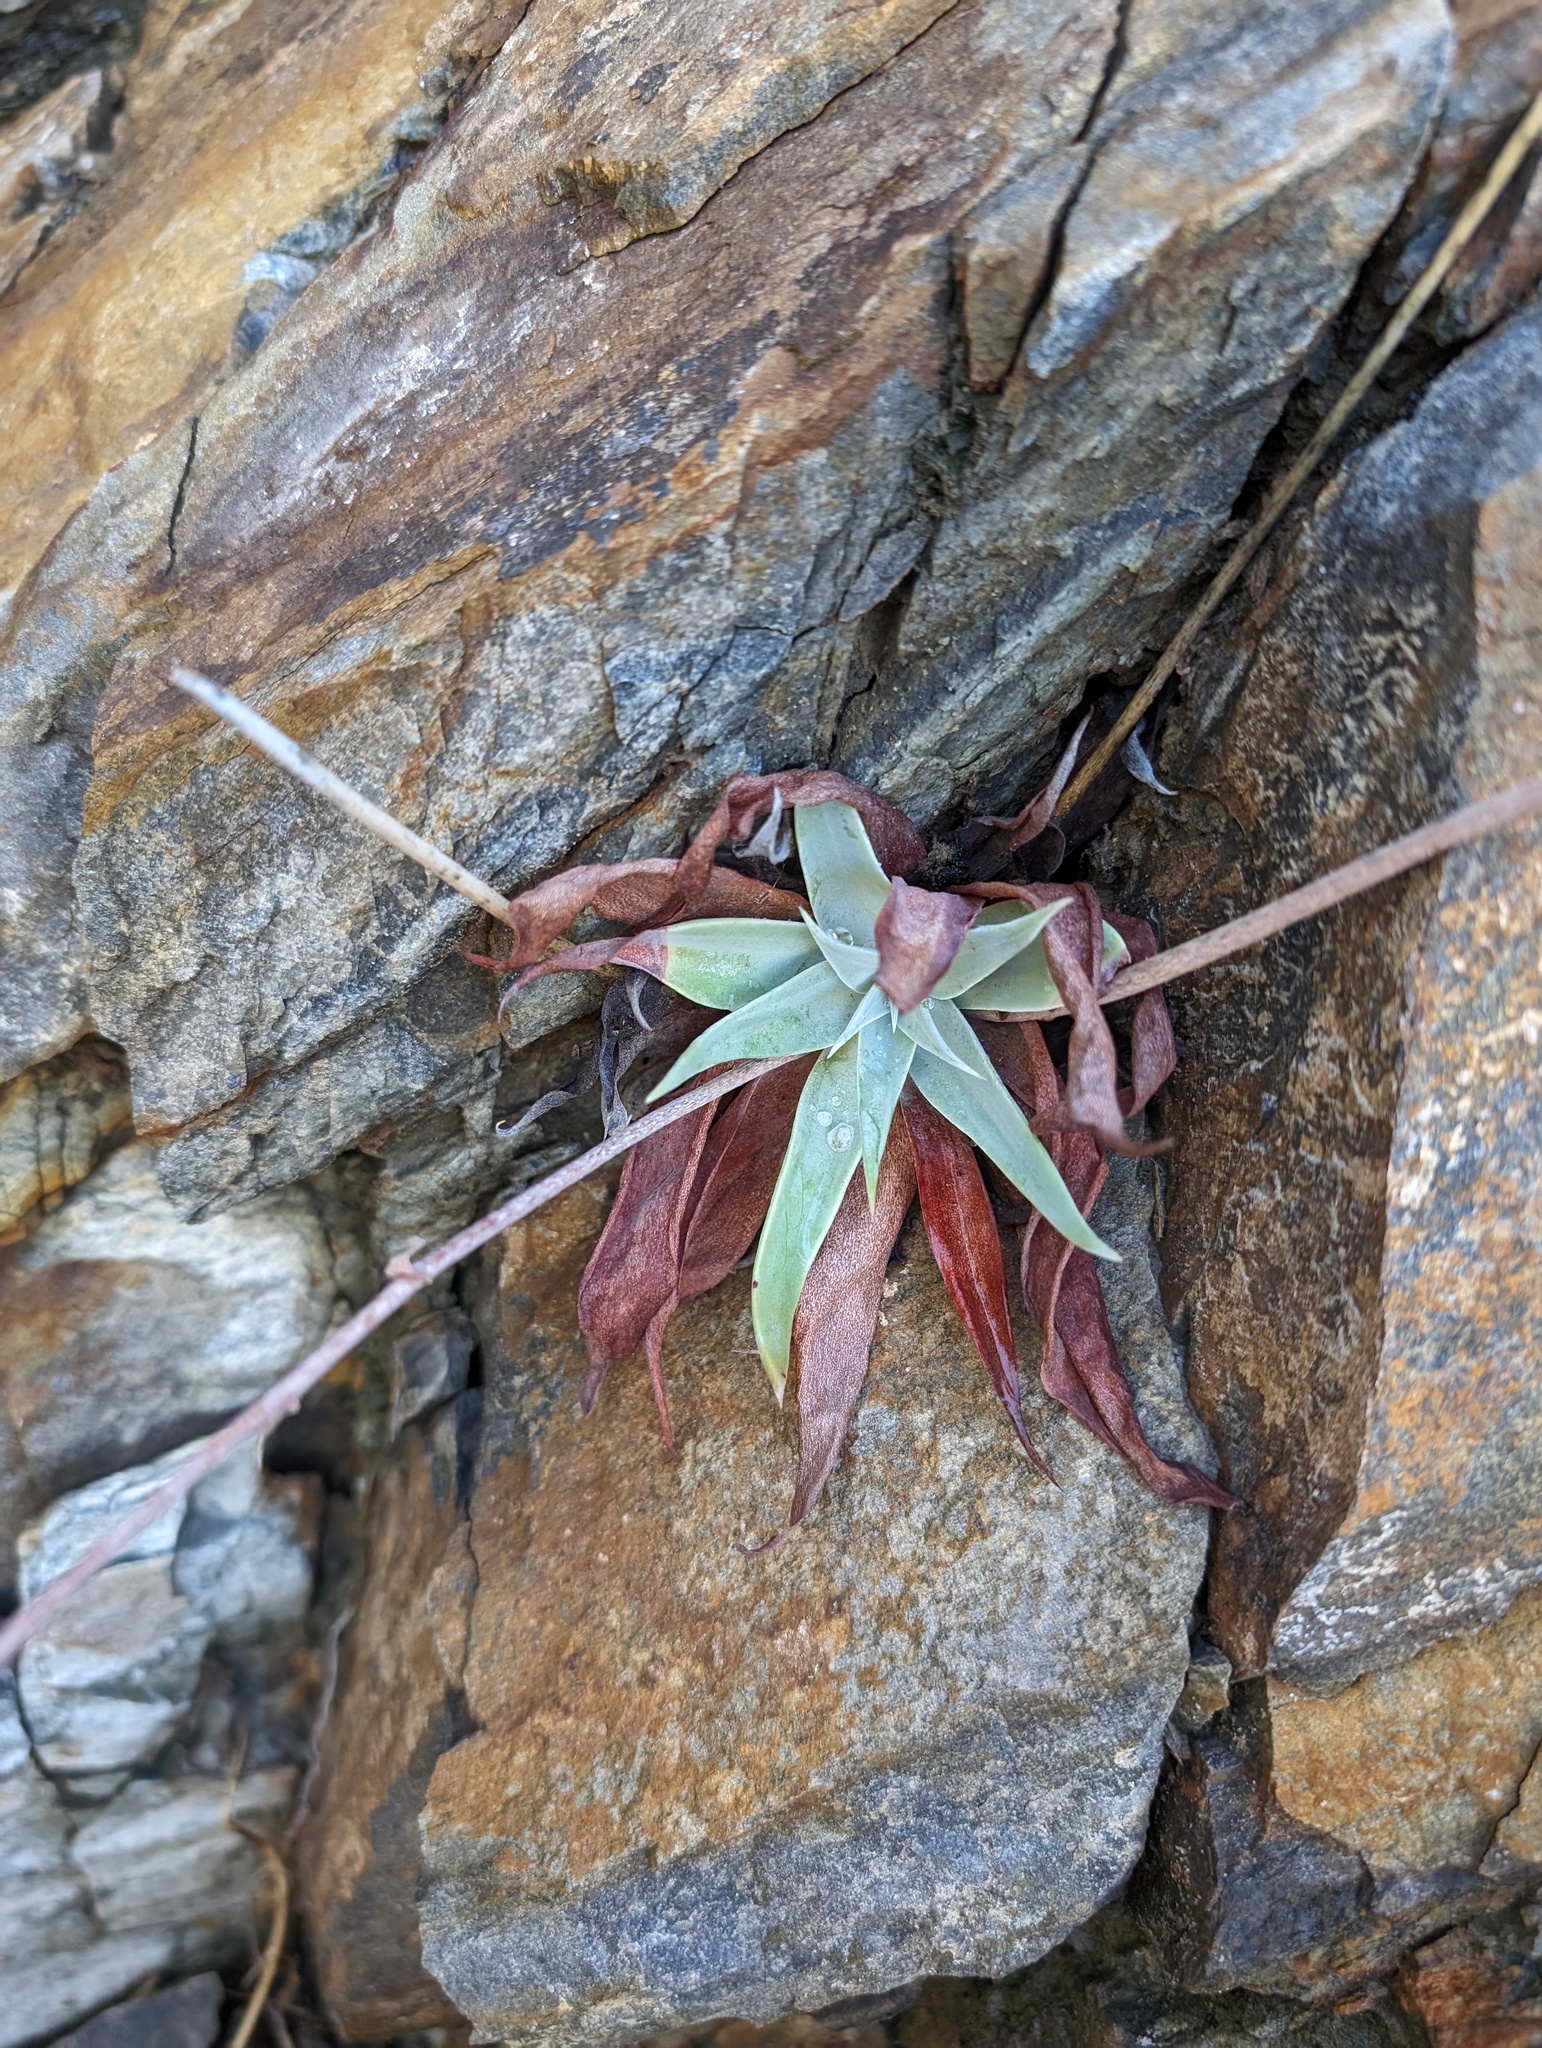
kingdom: Plantae
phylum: Tracheophyta
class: Magnoliopsida
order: Saxifragales
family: Crassulaceae
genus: Dudleya
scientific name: Dudleya arizonica
